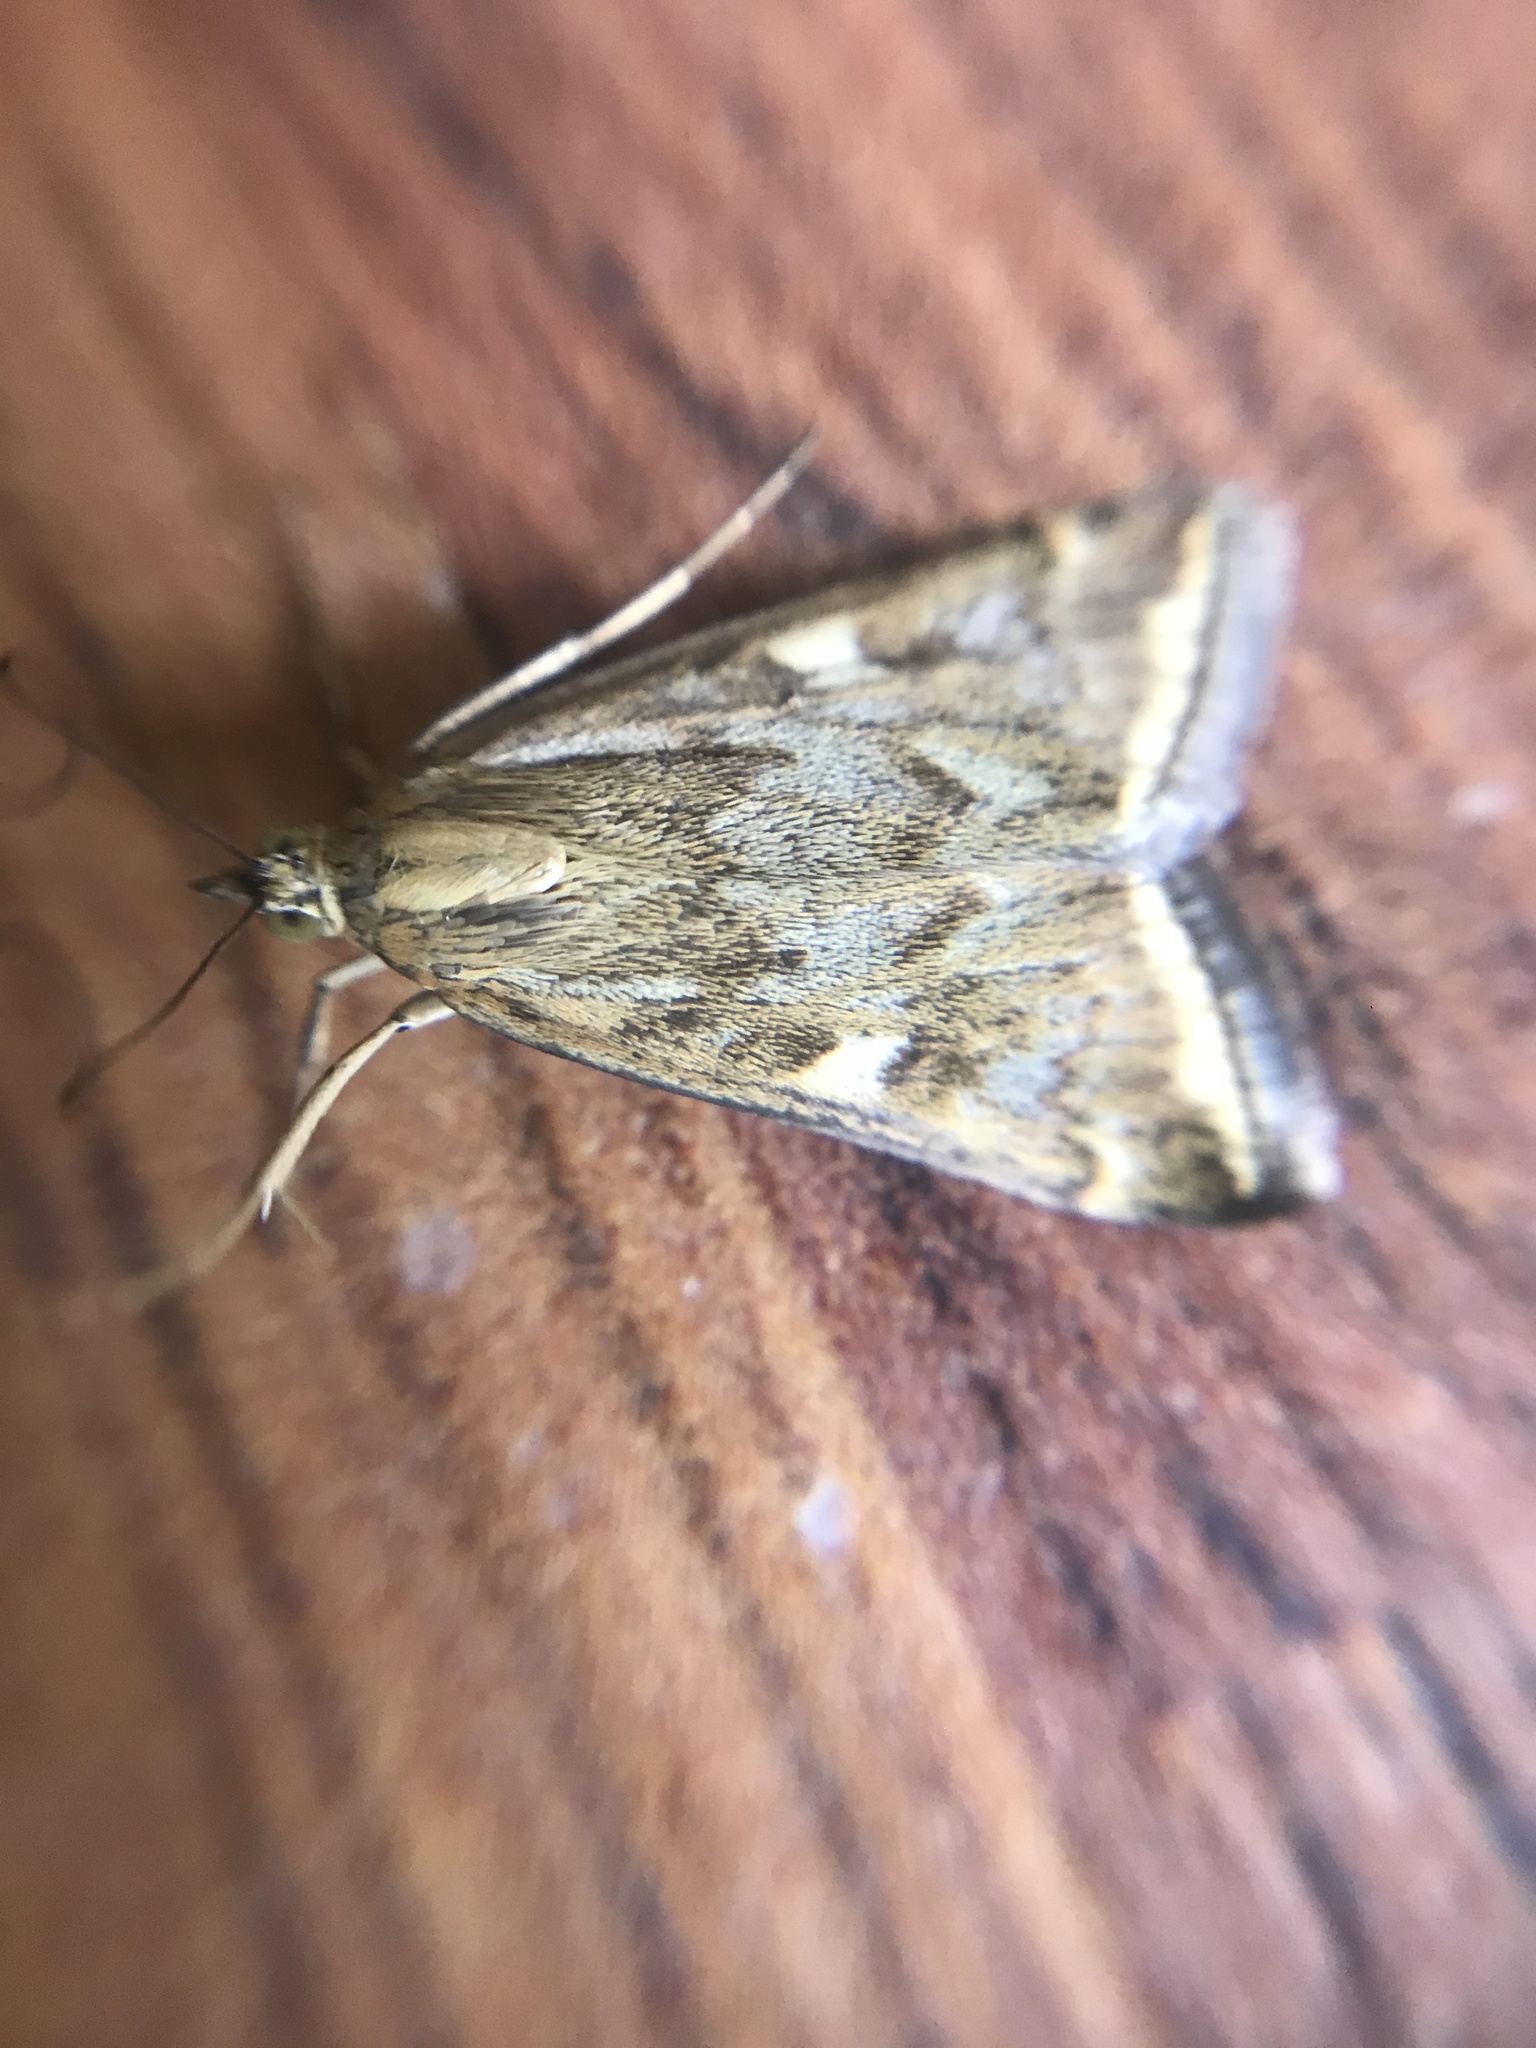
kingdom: Animalia
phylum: Arthropoda
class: Insecta
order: Lepidoptera
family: Crambidae
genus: Loxostege
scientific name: Loxostege sticticalis
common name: Crambid moth
